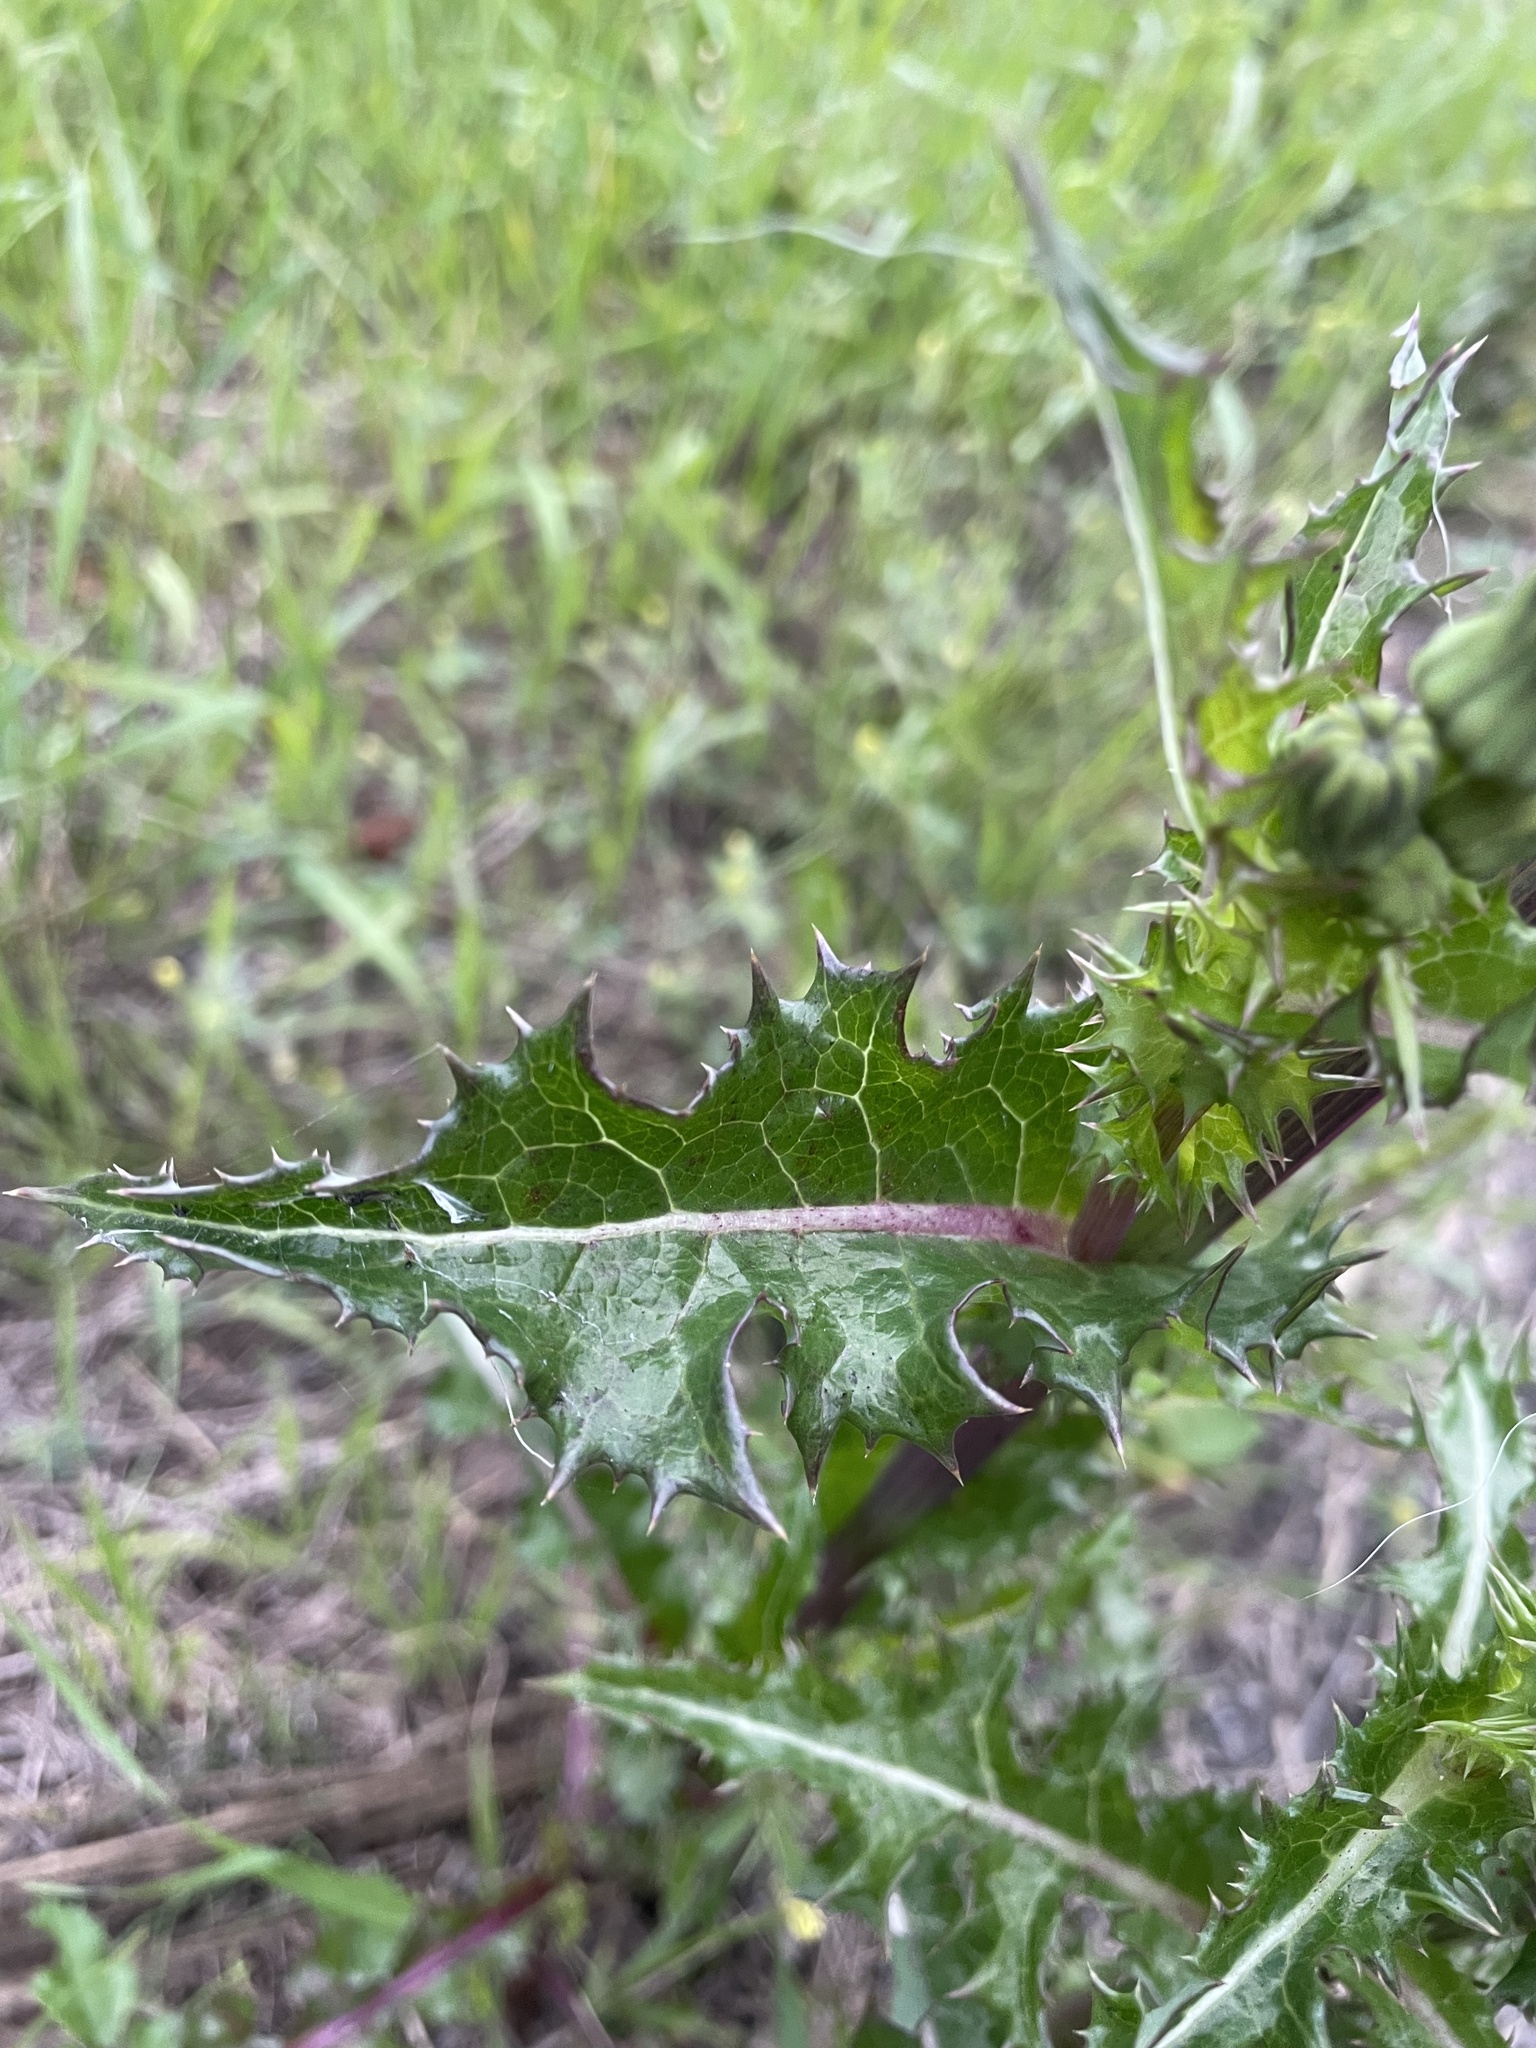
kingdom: Plantae
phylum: Tracheophyta
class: Magnoliopsida
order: Asterales
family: Asteraceae
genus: Sonchus
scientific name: Sonchus asper
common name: Prickly sow-thistle
